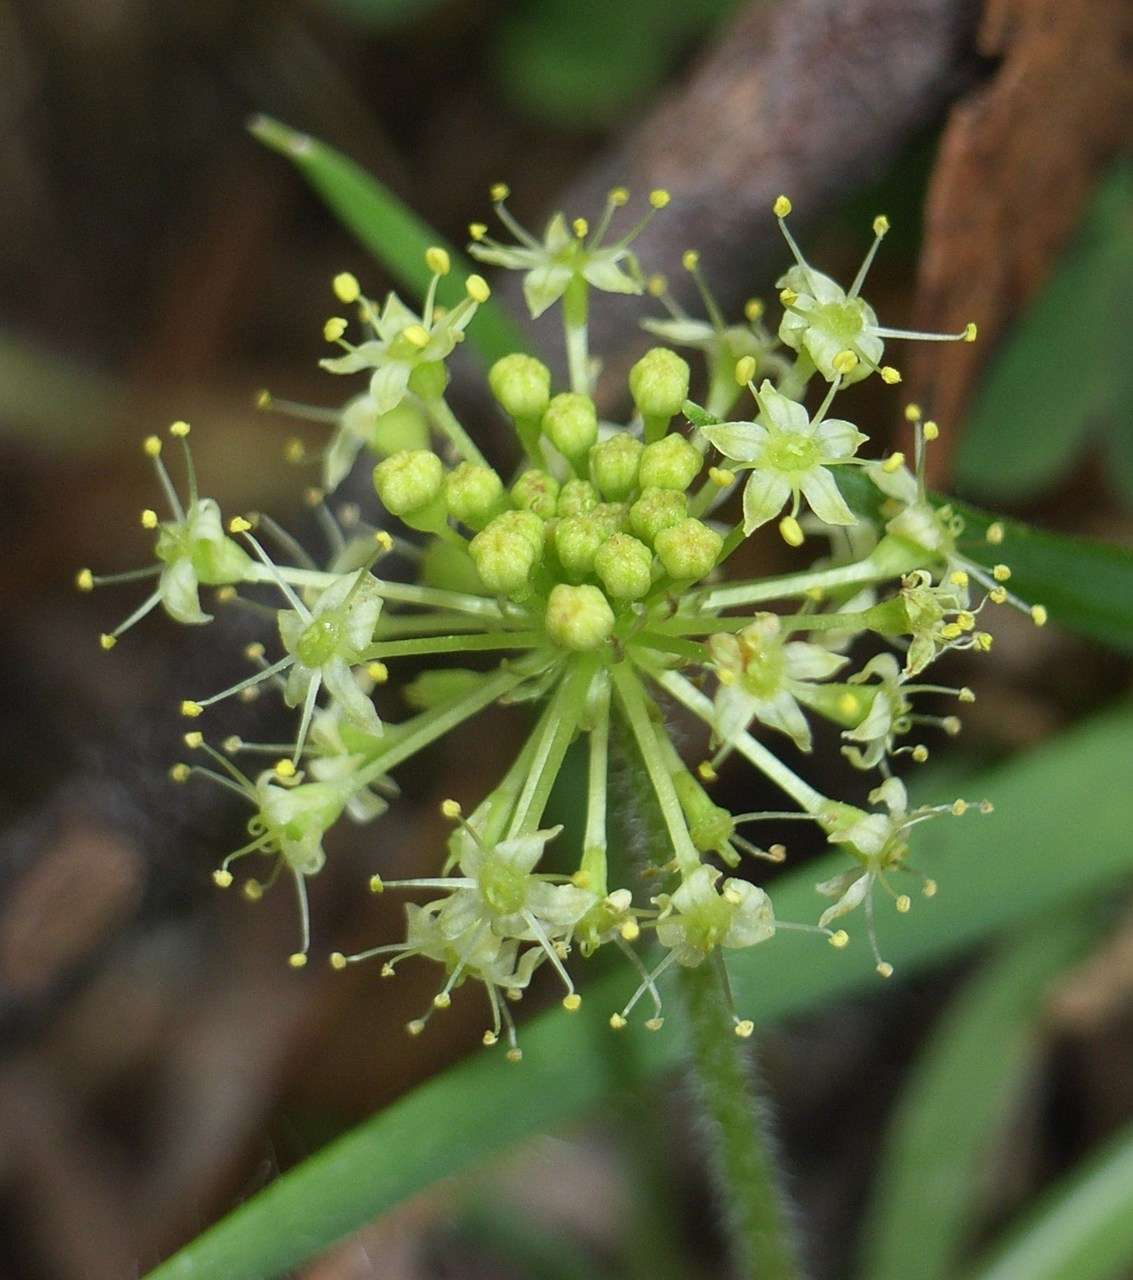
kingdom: Plantae
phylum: Tracheophyta
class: Magnoliopsida
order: Apiales
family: Araliaceae
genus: Hydrocotyle
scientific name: Hydrocotyle laxiflora
